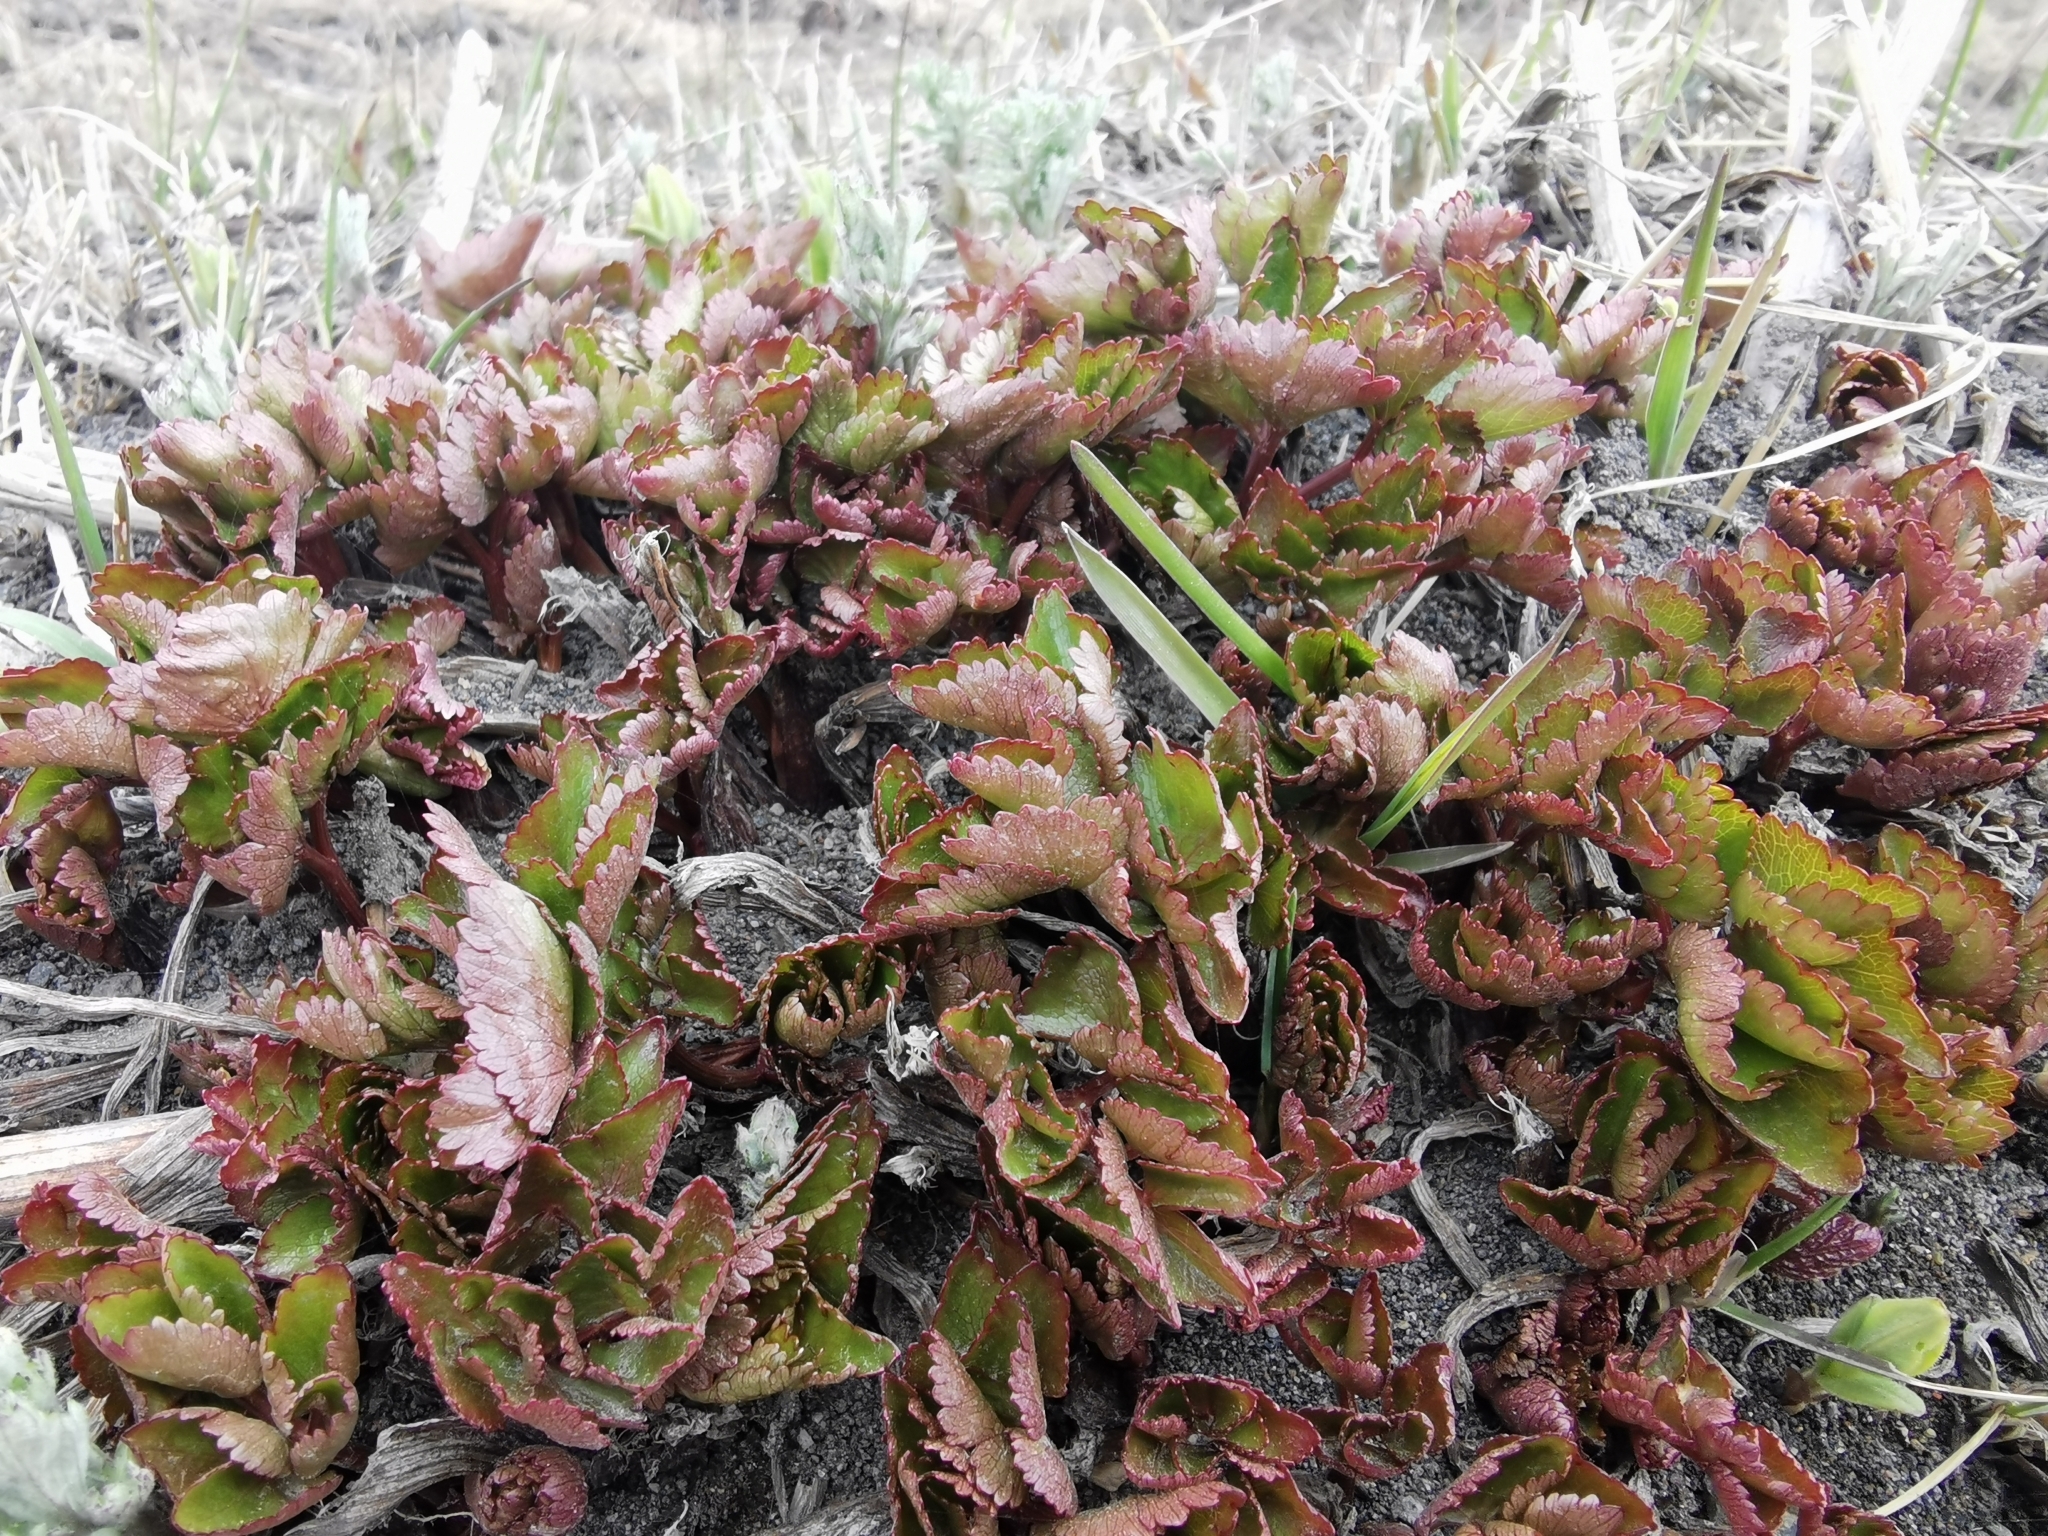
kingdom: Plantae
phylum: Tracheophyta
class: Magnoliopsida
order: Apiales
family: Apiaceae
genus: Ligusticum
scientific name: Ligusticum scothicum
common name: Beach lovage
